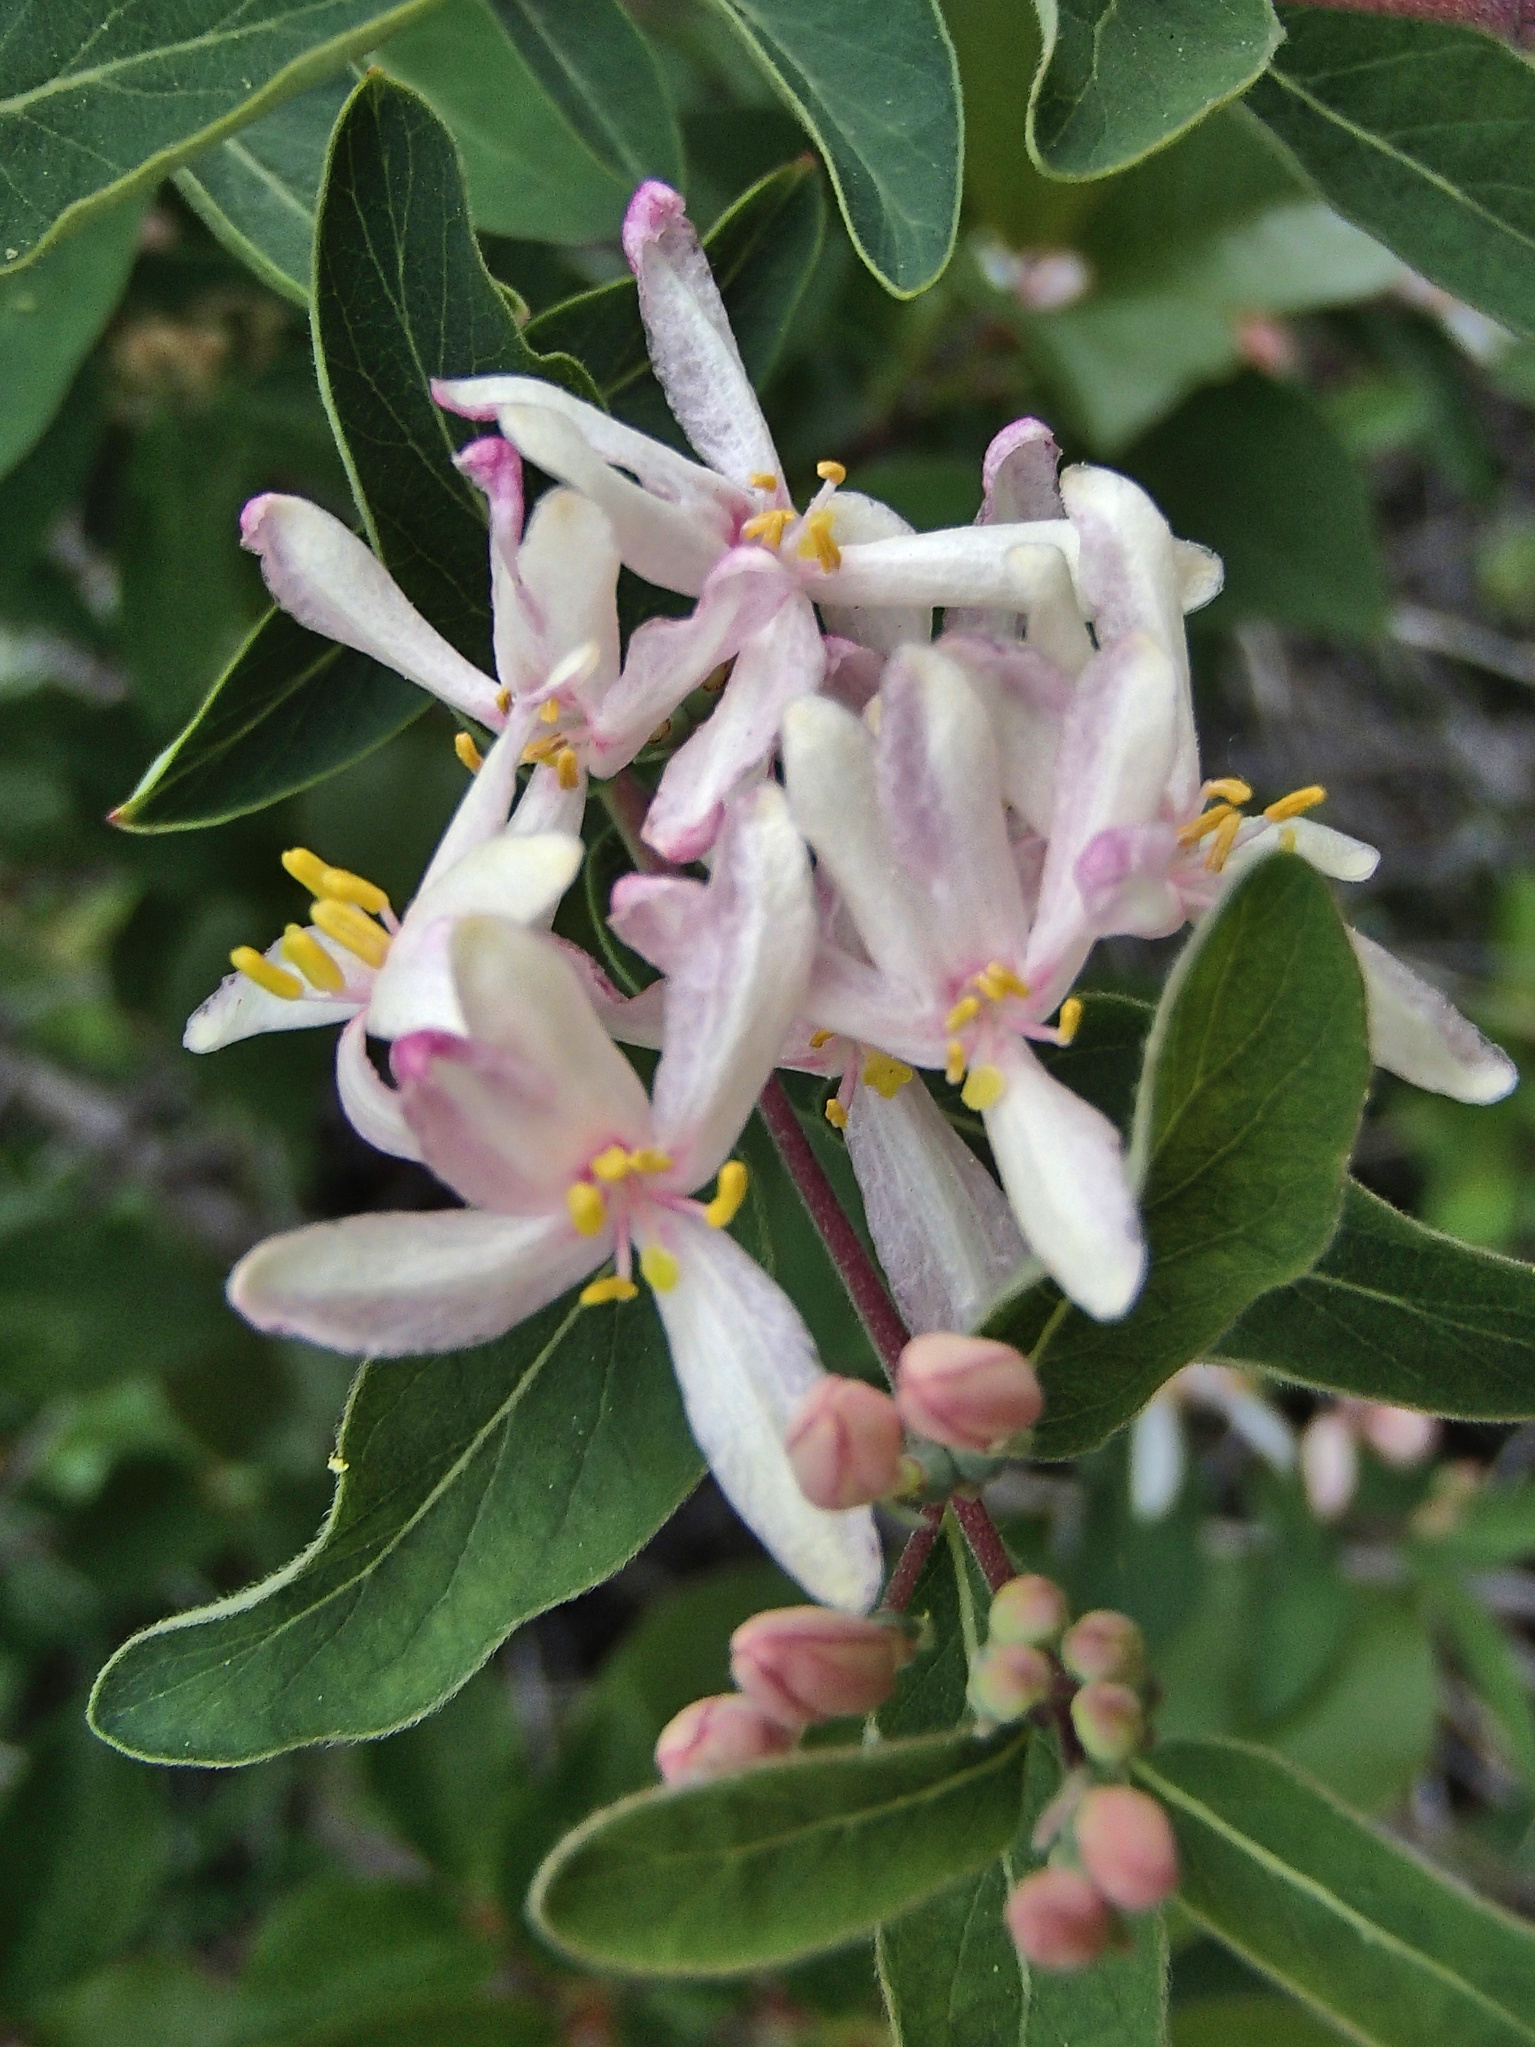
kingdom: Plantae
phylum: Tracheophyta
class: Magnoliopsida
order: Dipsacales
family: Caprifoliaceae
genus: Lonicera
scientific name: Lonicera tatarica
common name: Tatarian honeysuckle
